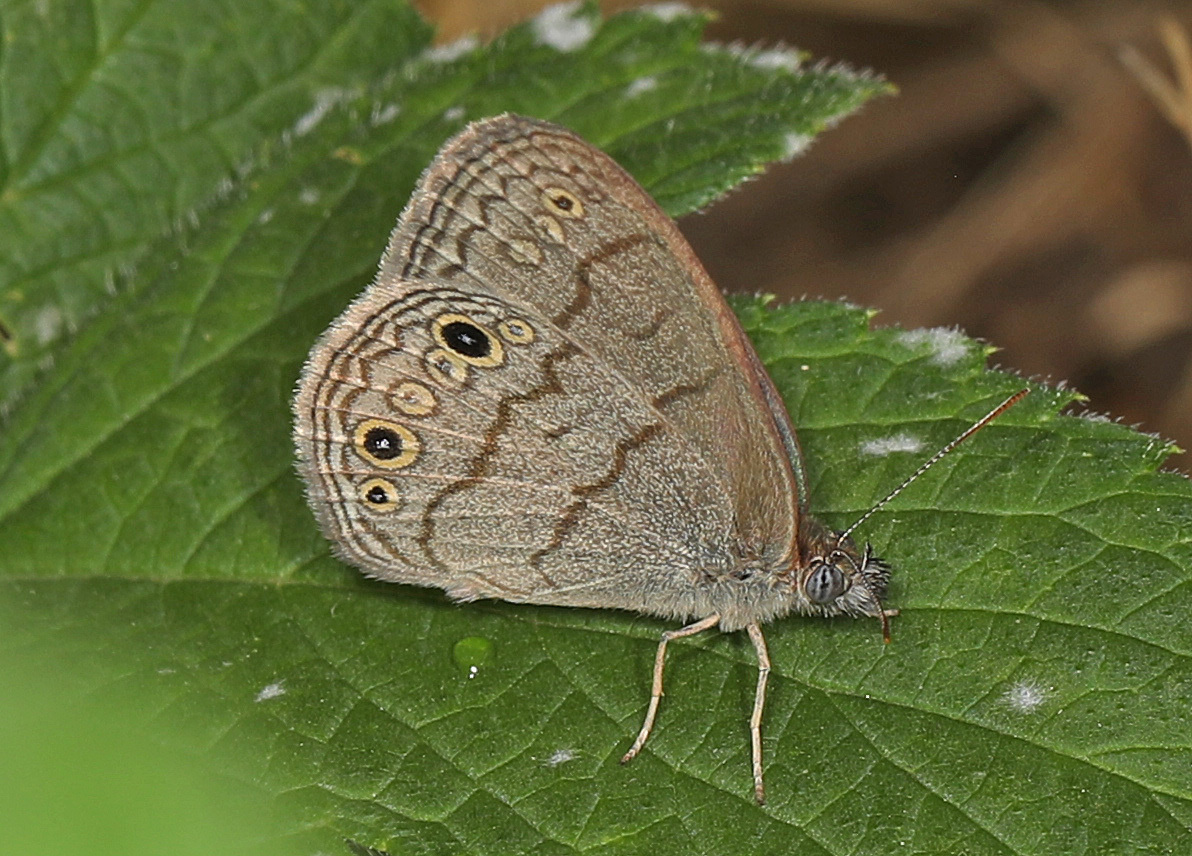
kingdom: Animalia
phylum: Arthropoda
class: Insecta
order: Lepidoptera
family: Nymphalidae
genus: Hermeuptychia
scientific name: Hermeuptychia hermes
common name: Hermes satyr
